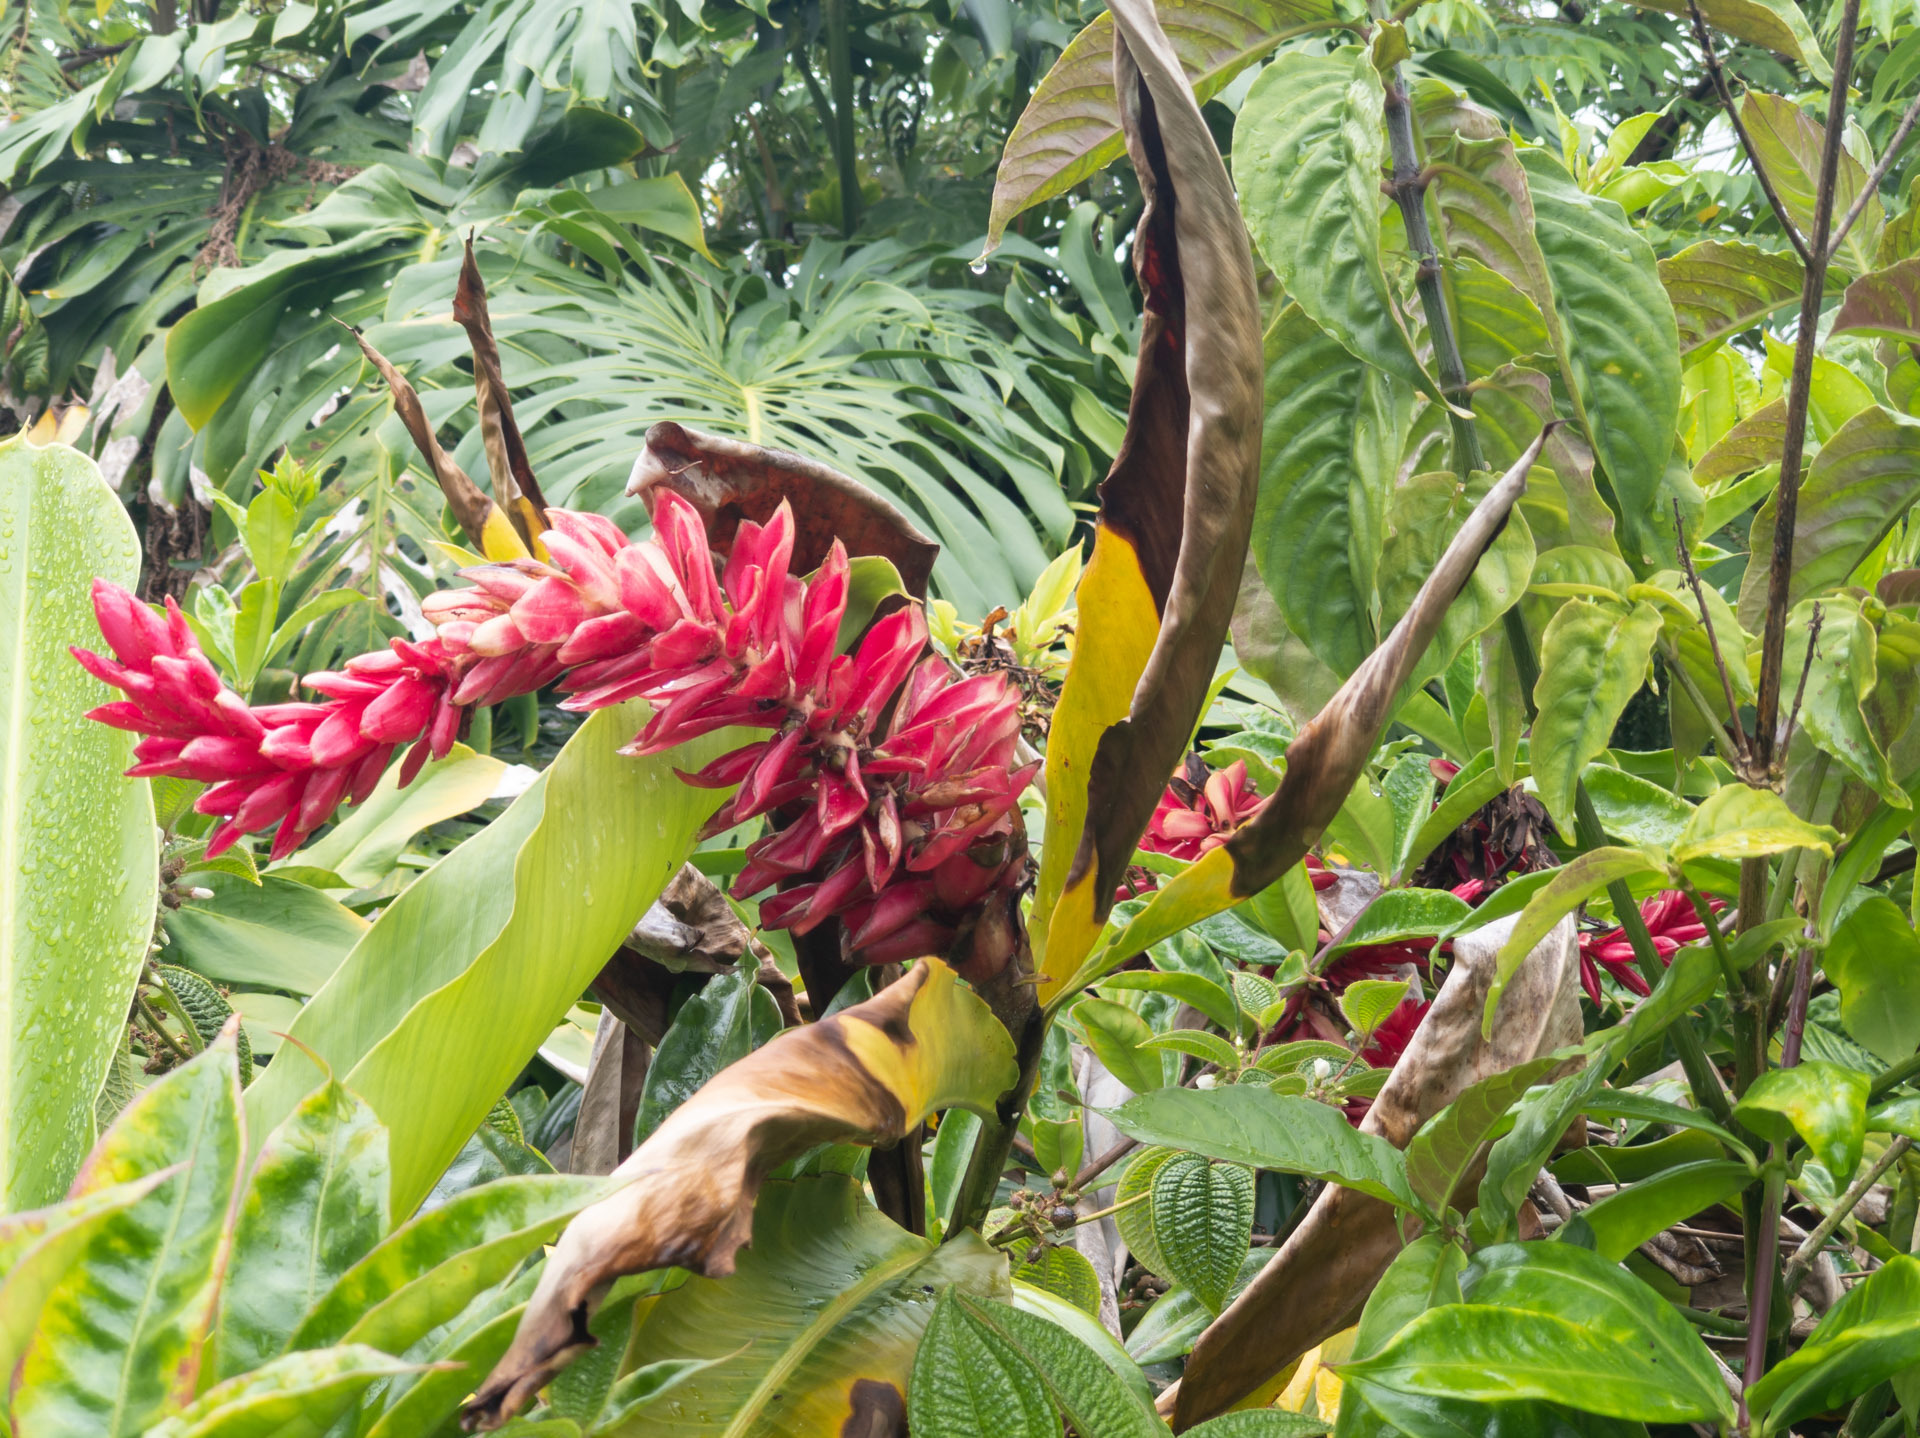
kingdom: Plantae
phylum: Tracheophyta
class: Liliopsida
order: Zingiberales
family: Zingiberaceae
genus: Alpinia
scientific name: Alpinia purpurata
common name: Red ginger
